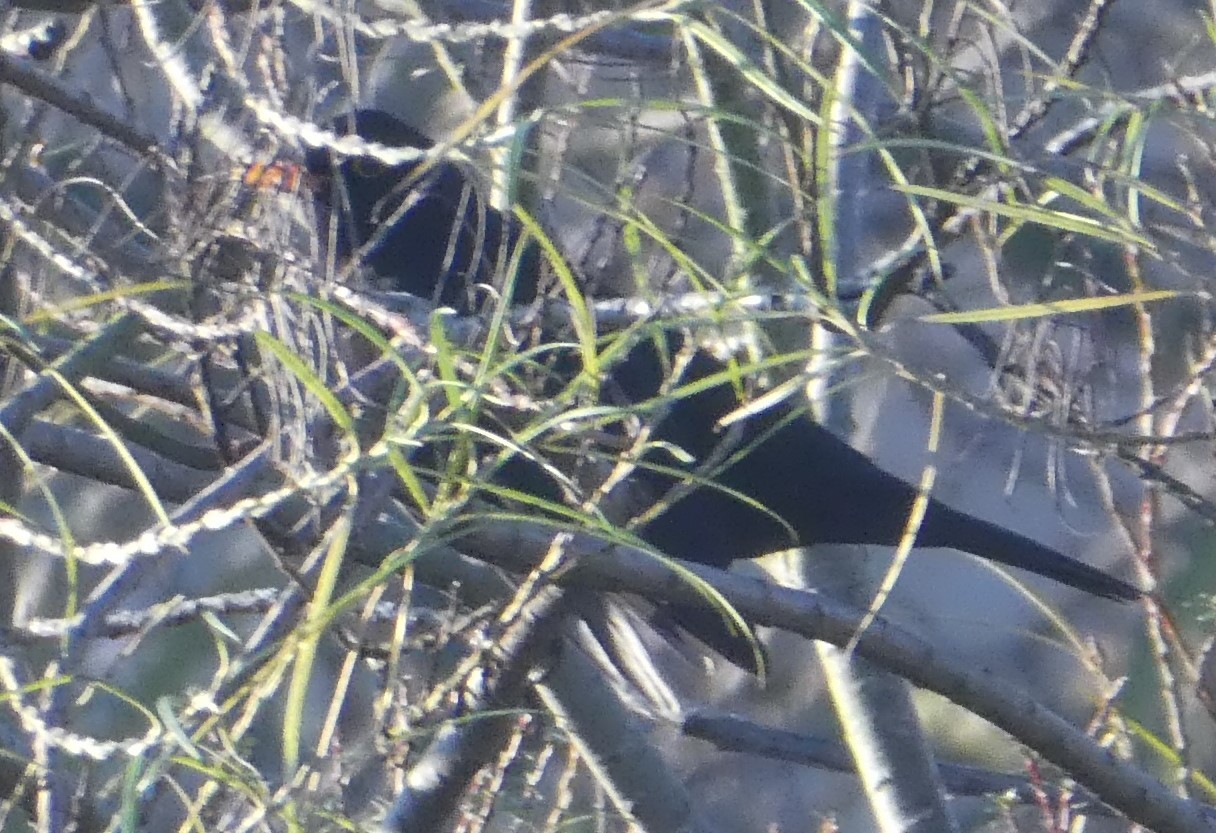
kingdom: Animalia
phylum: Chordata
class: Aves
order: Passeriformes
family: Turdidae
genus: Turdus
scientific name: Turdus merula
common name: Common blackbird
